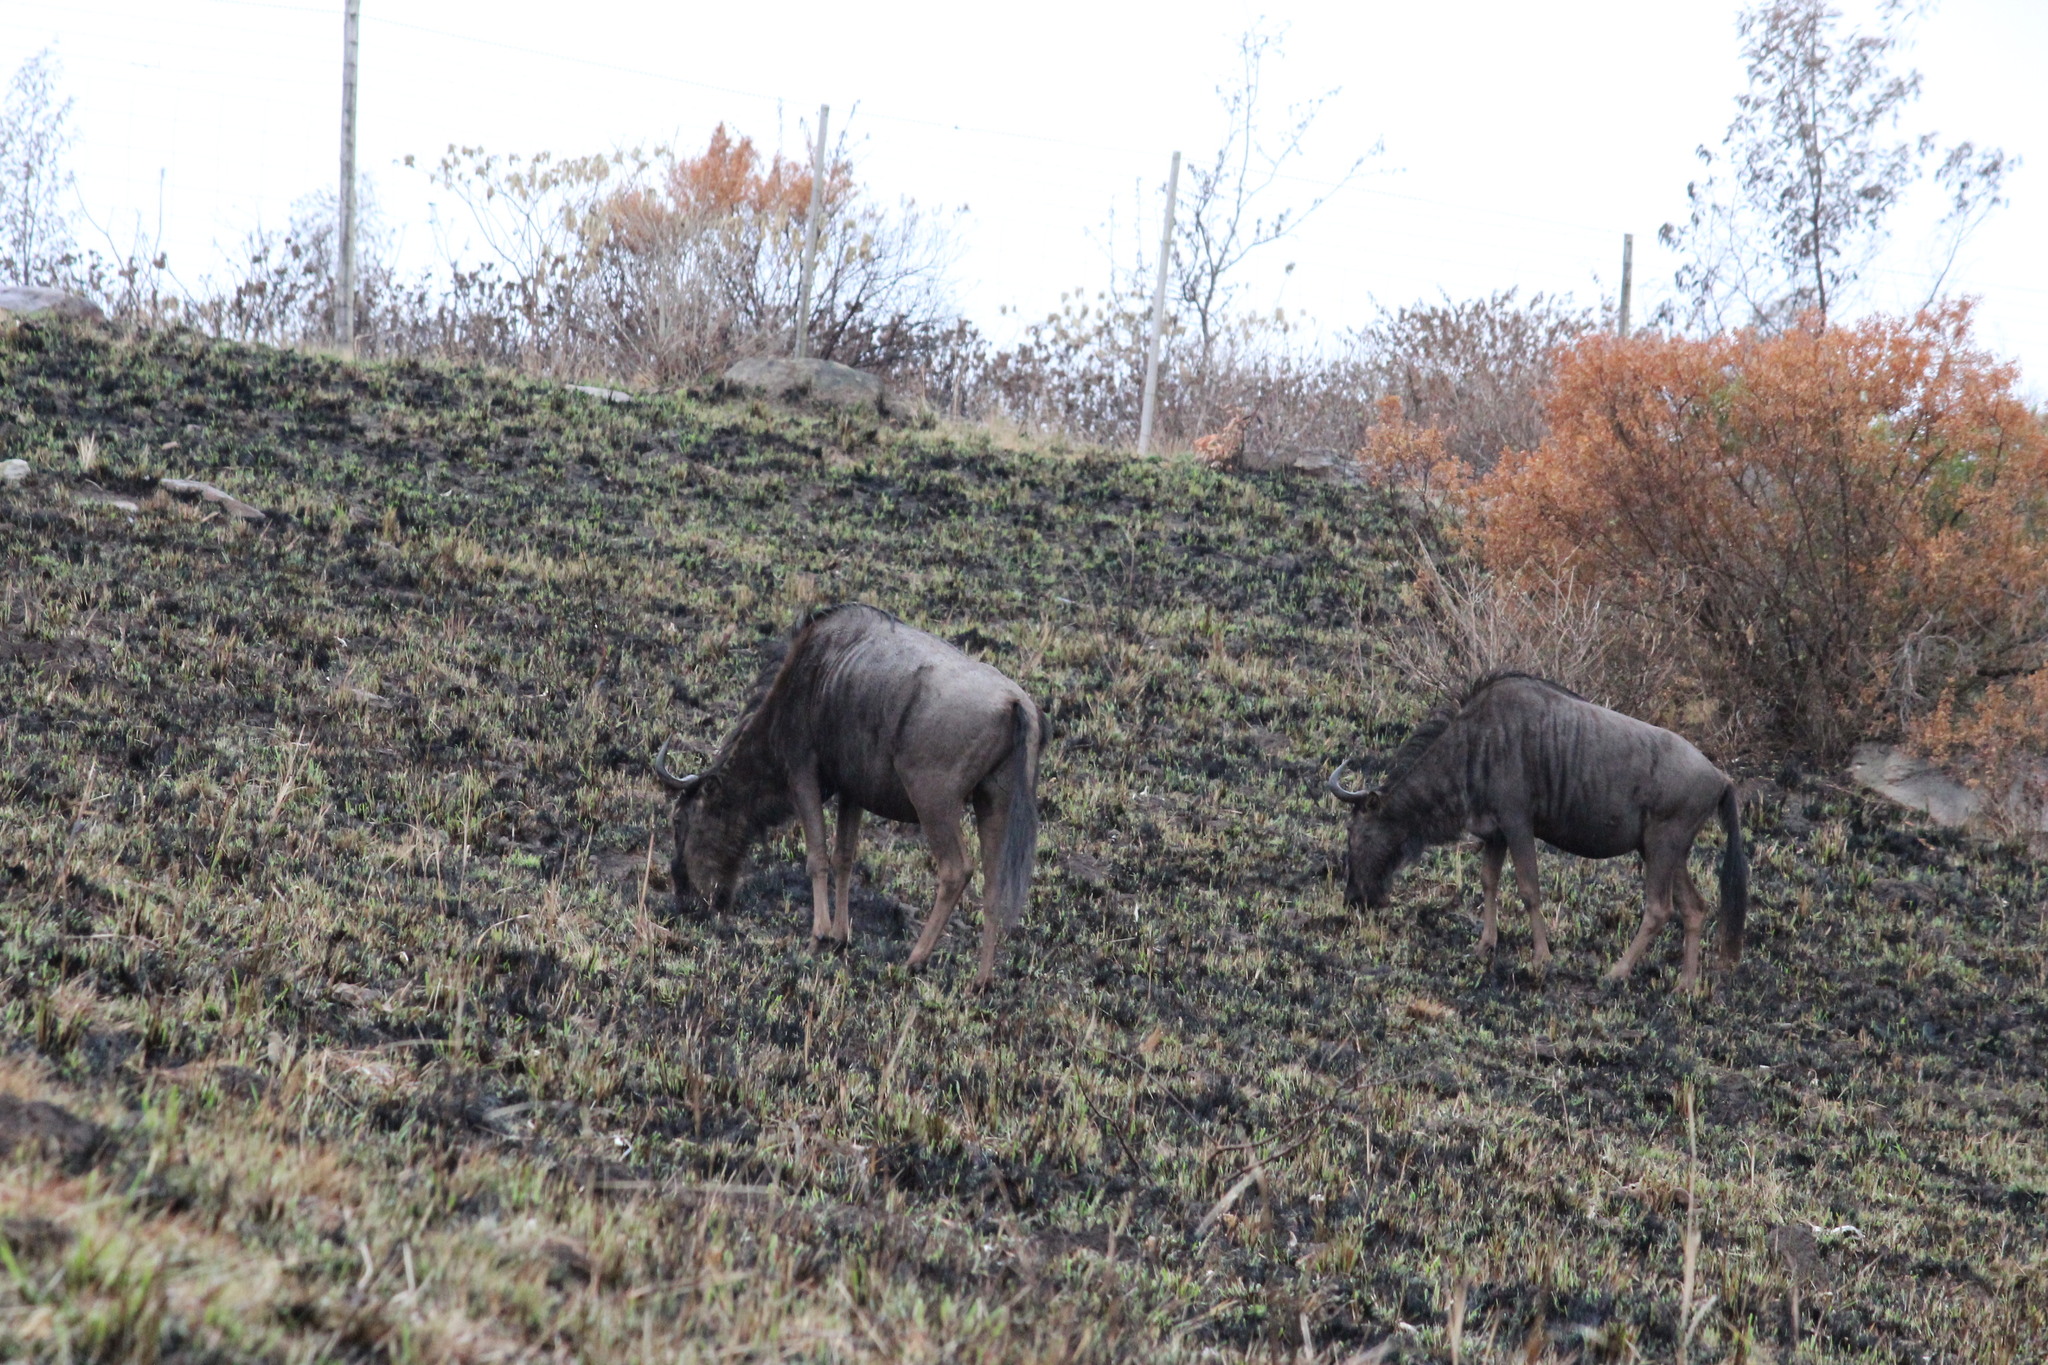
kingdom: Animalia
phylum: Chordata
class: Mammalia
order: Artiodactyla
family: Bovidae
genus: Connochaetes
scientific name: Connochaetes taurinus
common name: Blue wildebeest
